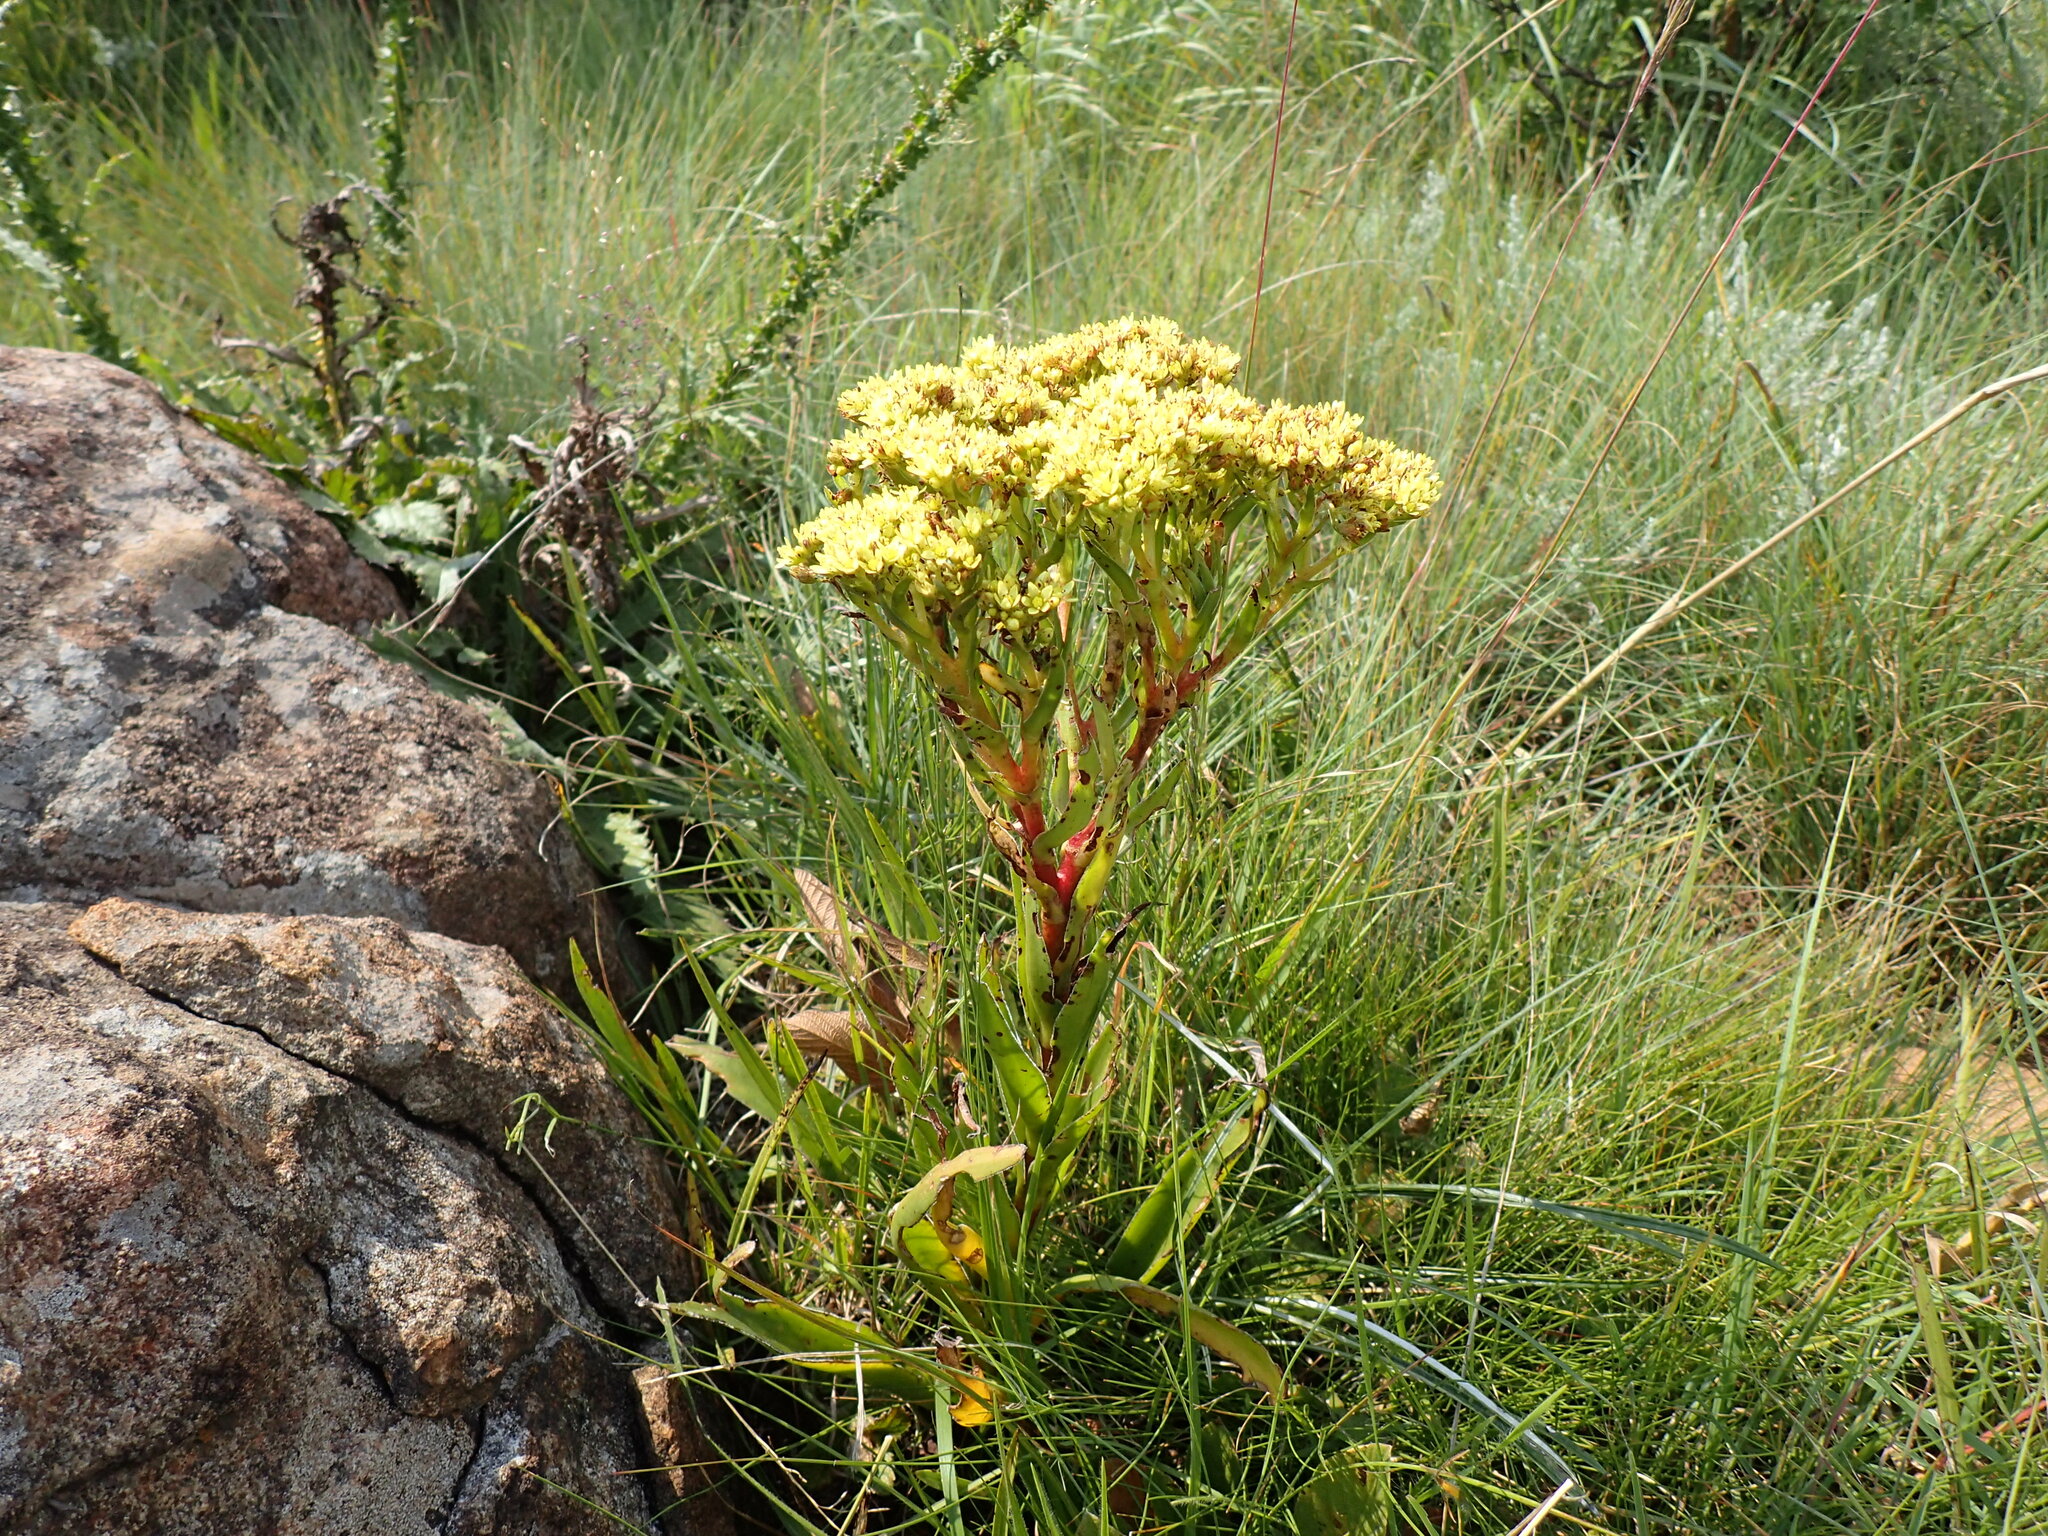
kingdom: Plantae
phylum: Tracheophyta
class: Magnoliopsida
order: Saxifragales
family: Crassulaceae
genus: Crassula
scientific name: Crassula vaginata
